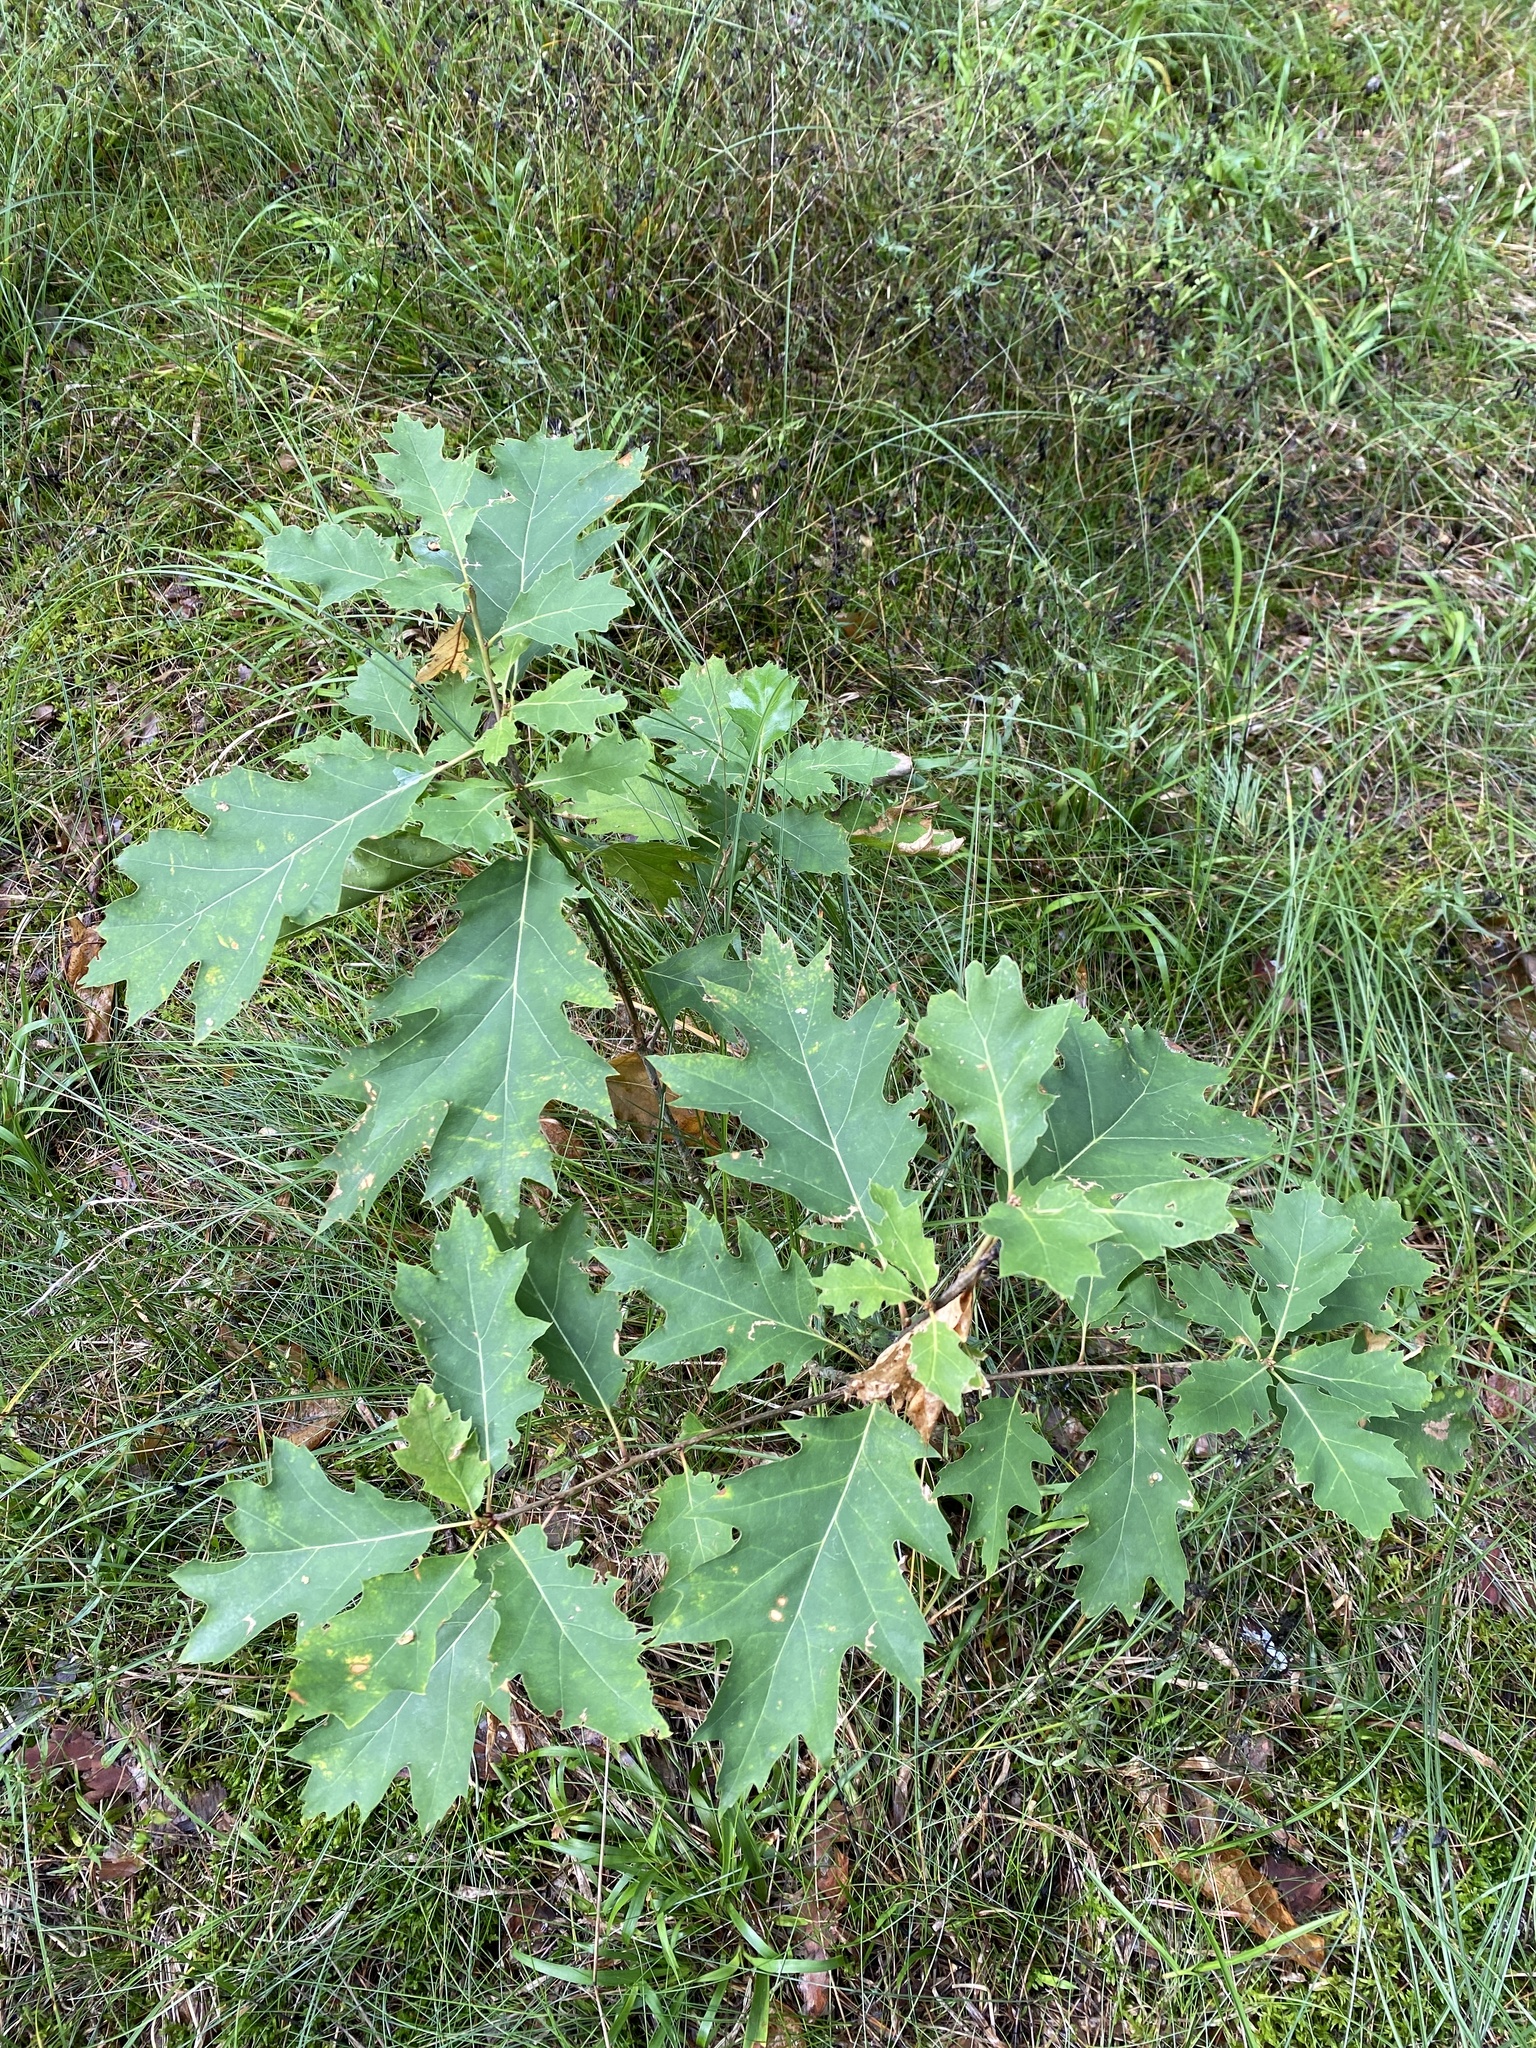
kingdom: Plantae
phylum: Tracheophyta
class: Magnoliopsida
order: Fagales
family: Fagaceae
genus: Quercus
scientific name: Quercus rubra
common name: Red oak
